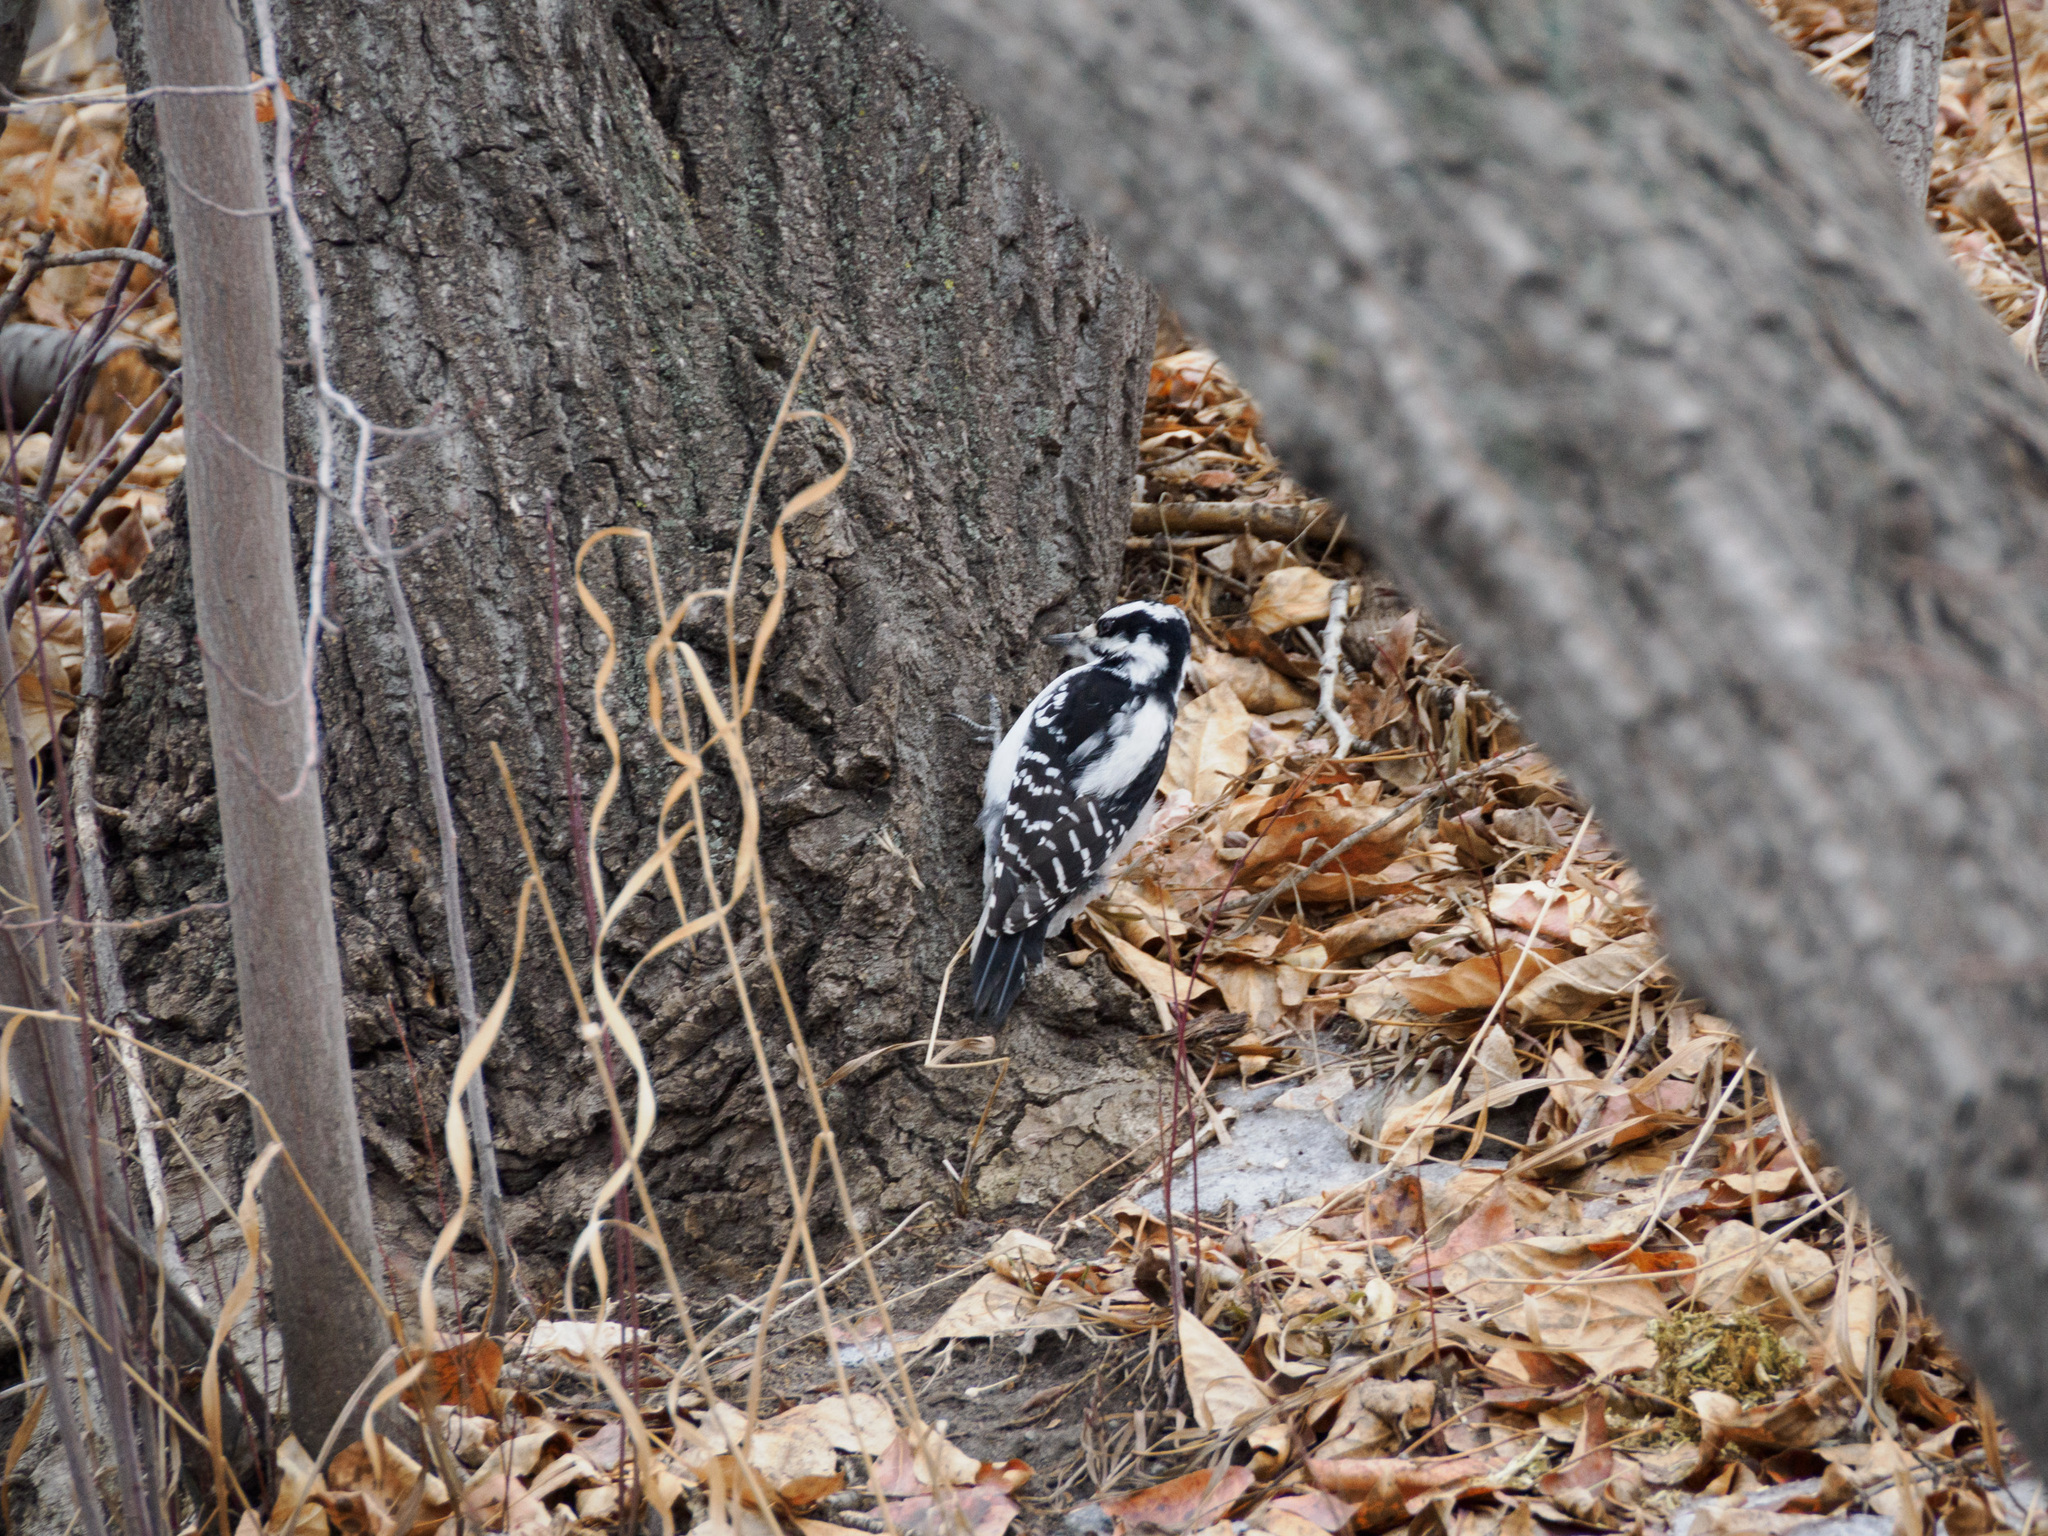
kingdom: Animalia
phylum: Chordata
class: Aves
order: Piciformes
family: Picidae
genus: Leuconotopicus
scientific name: Leuconotopicus villosus
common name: Hairy woodpecker
